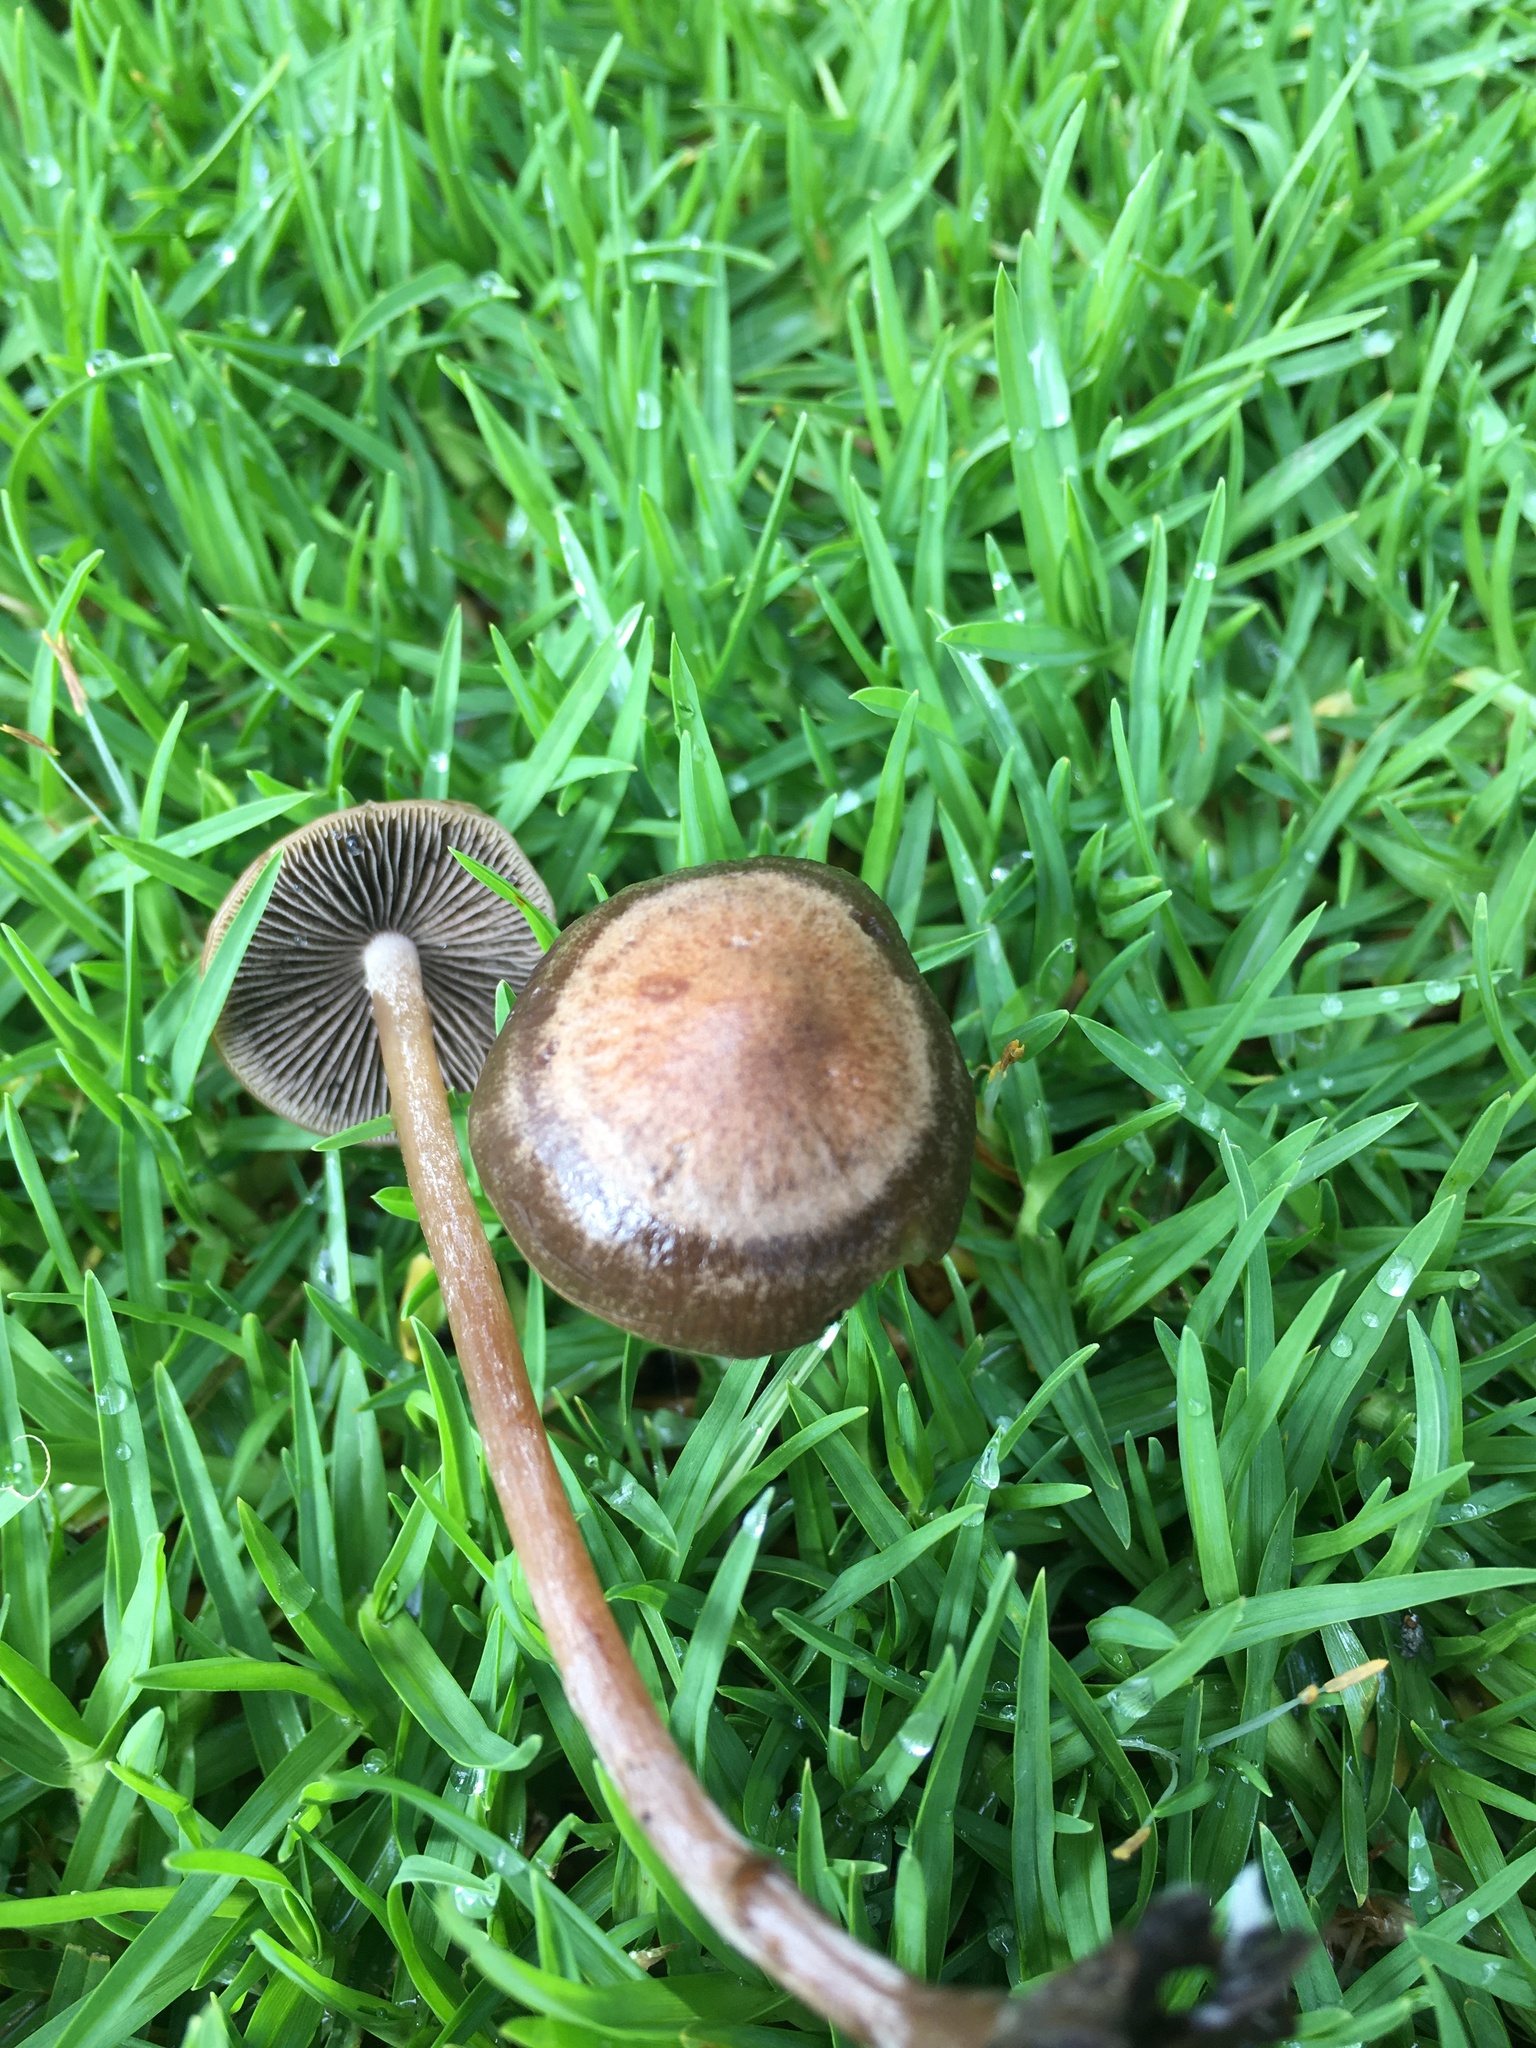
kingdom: Fungi
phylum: Basidiomycota
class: Agaricomycetes
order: Agaricales
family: Bolbitiaceae
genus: Panaeolus
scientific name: Panaeolus cinctulus
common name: Banded mottlegill
